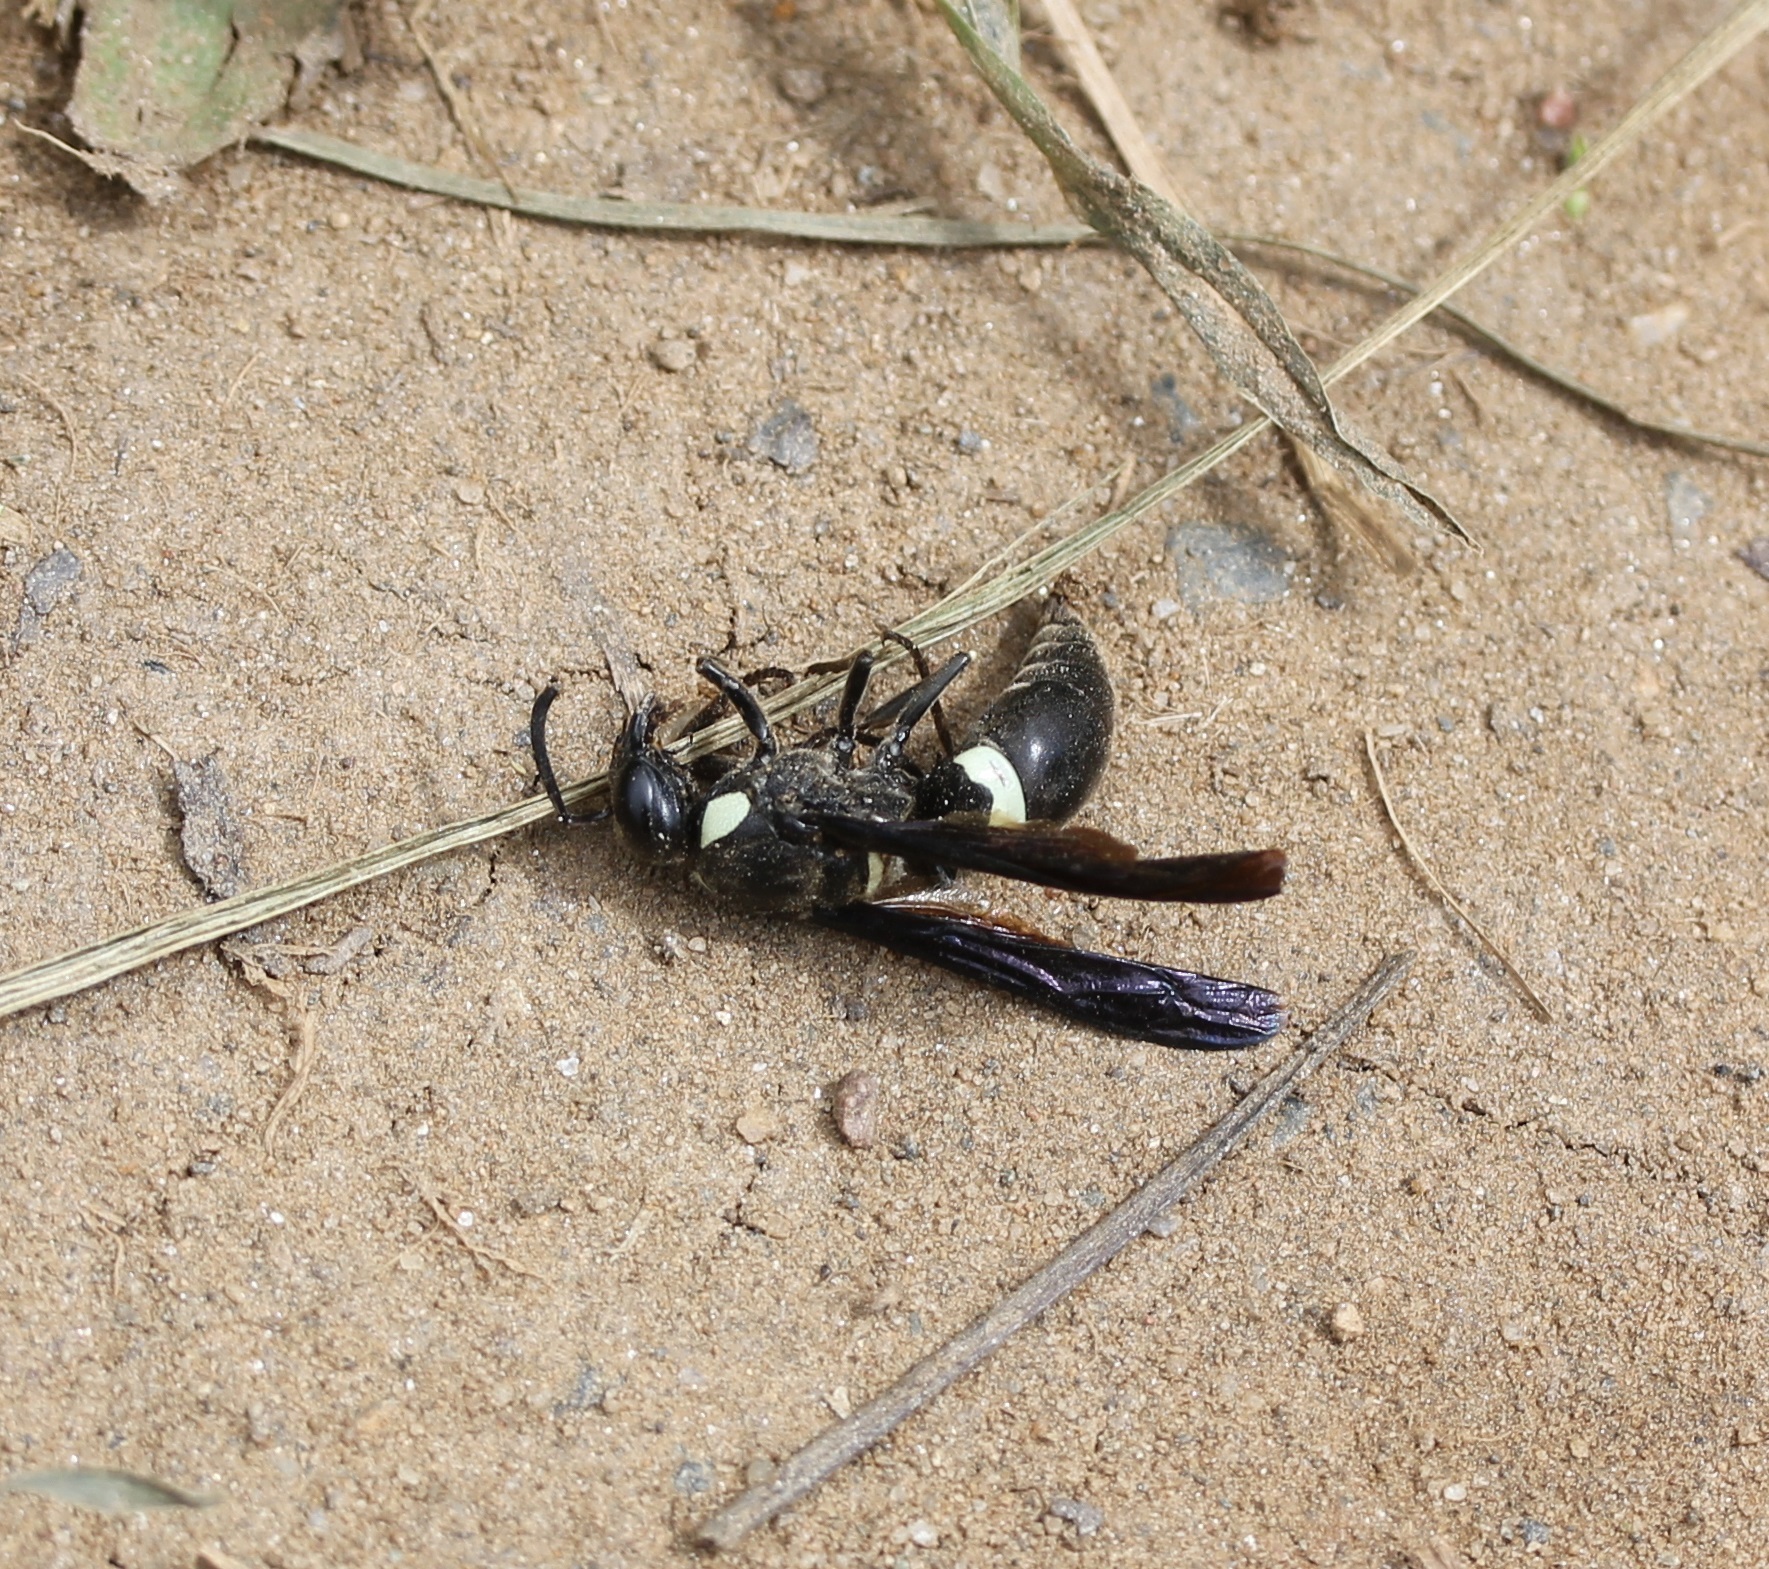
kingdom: Animalia
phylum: Arthropoda
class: Insecta
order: Hymenoptera
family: Eumenidae
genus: Monobia
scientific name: Monobia quadridens
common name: Four-toothed mason wasp
